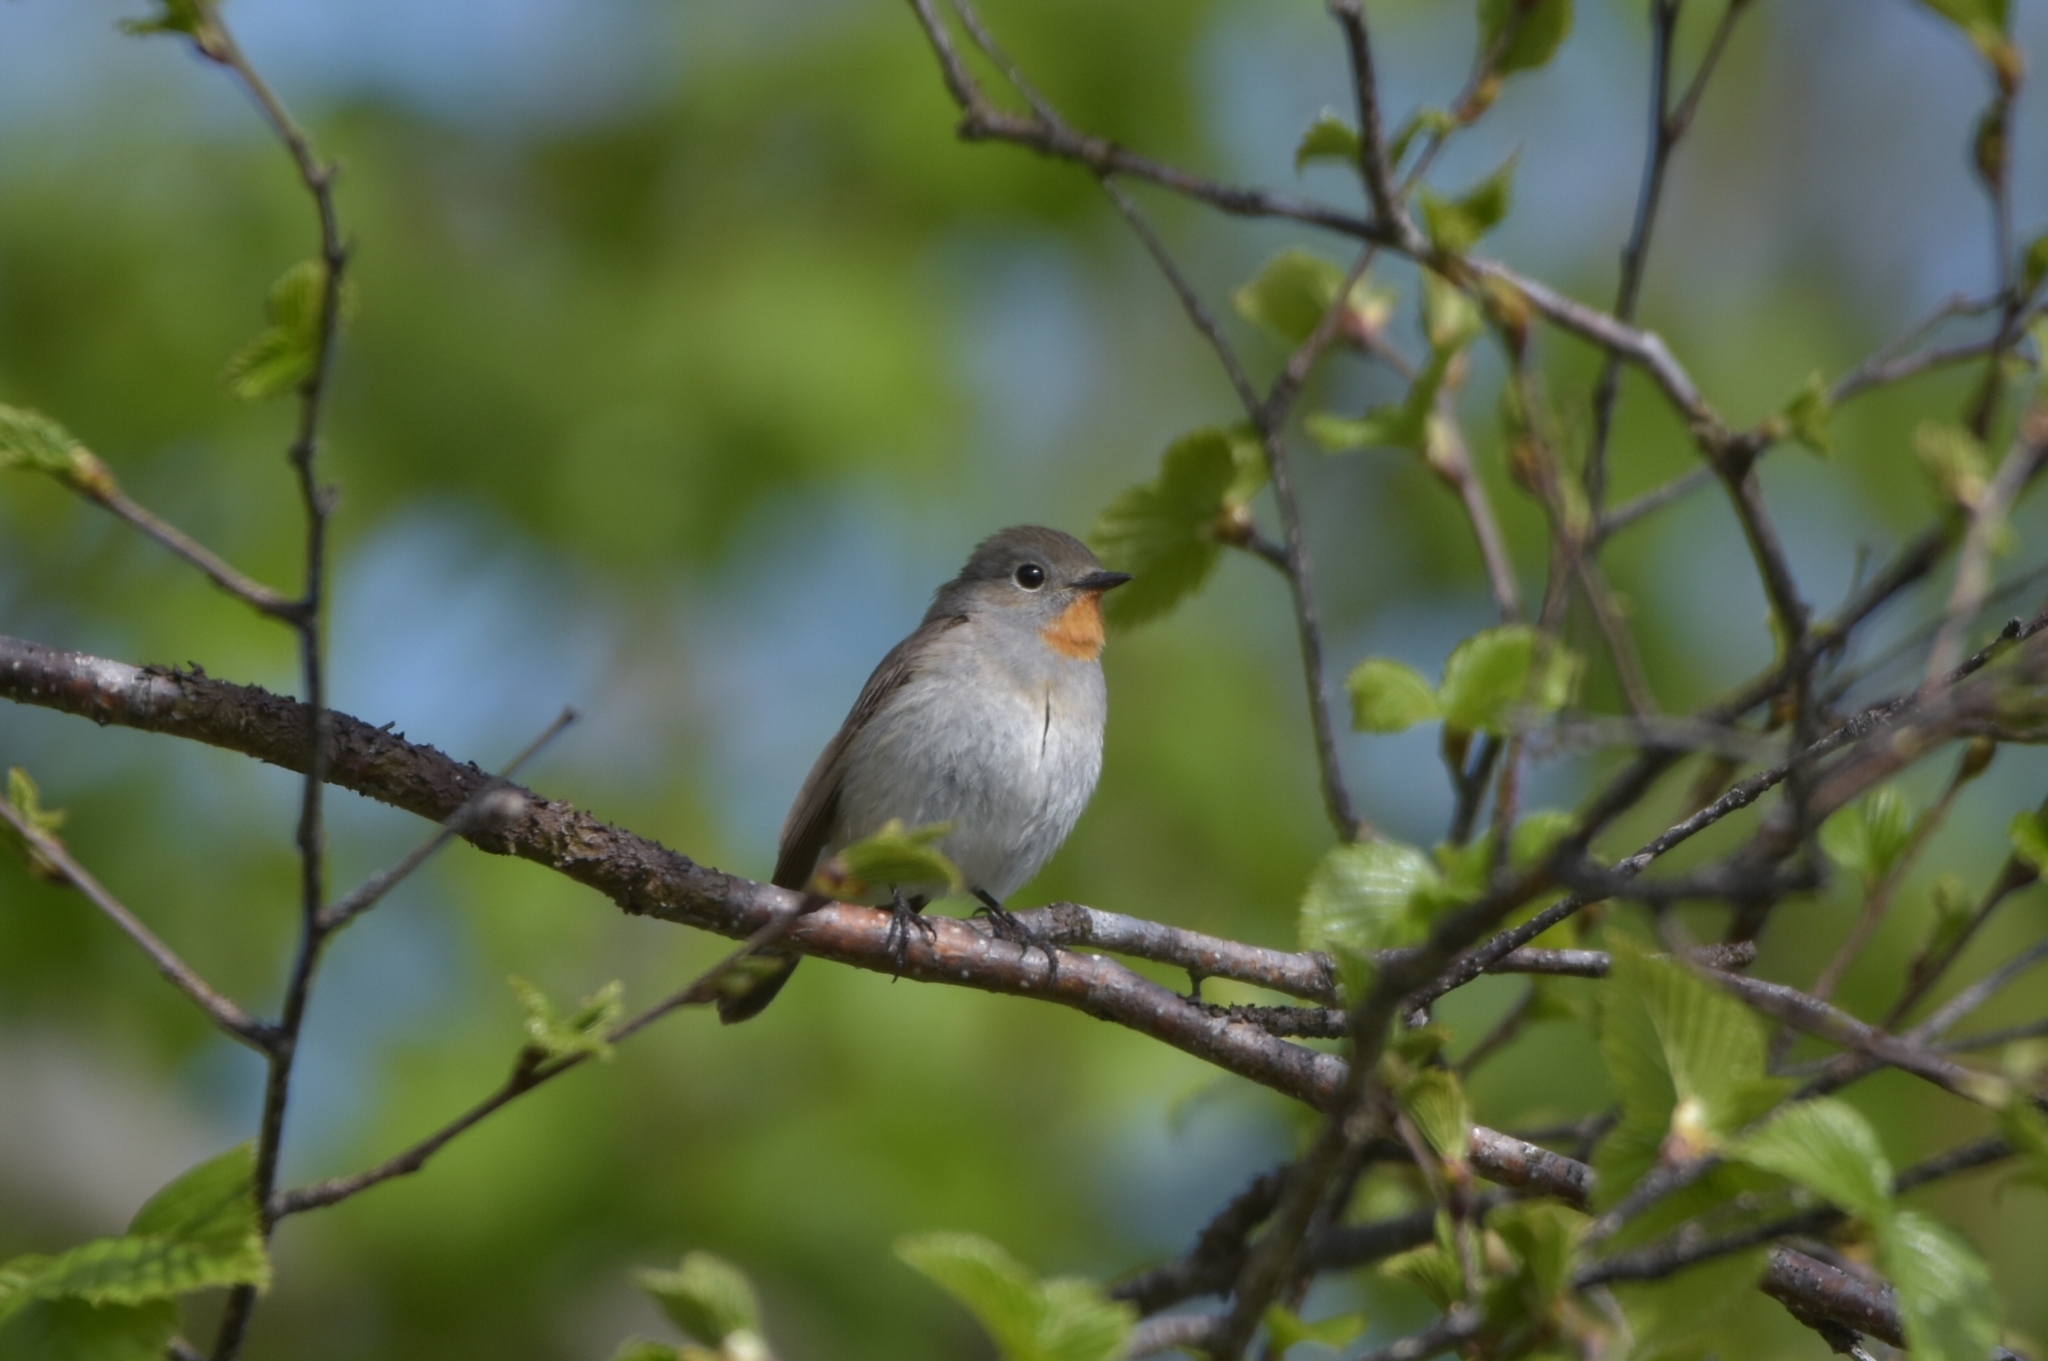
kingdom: Animalia
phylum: Chordata
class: Aves
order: Passeriformes
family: Muscicapidae
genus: Ficedula
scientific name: Ficedula albicilla
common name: Taiga flycatcher
